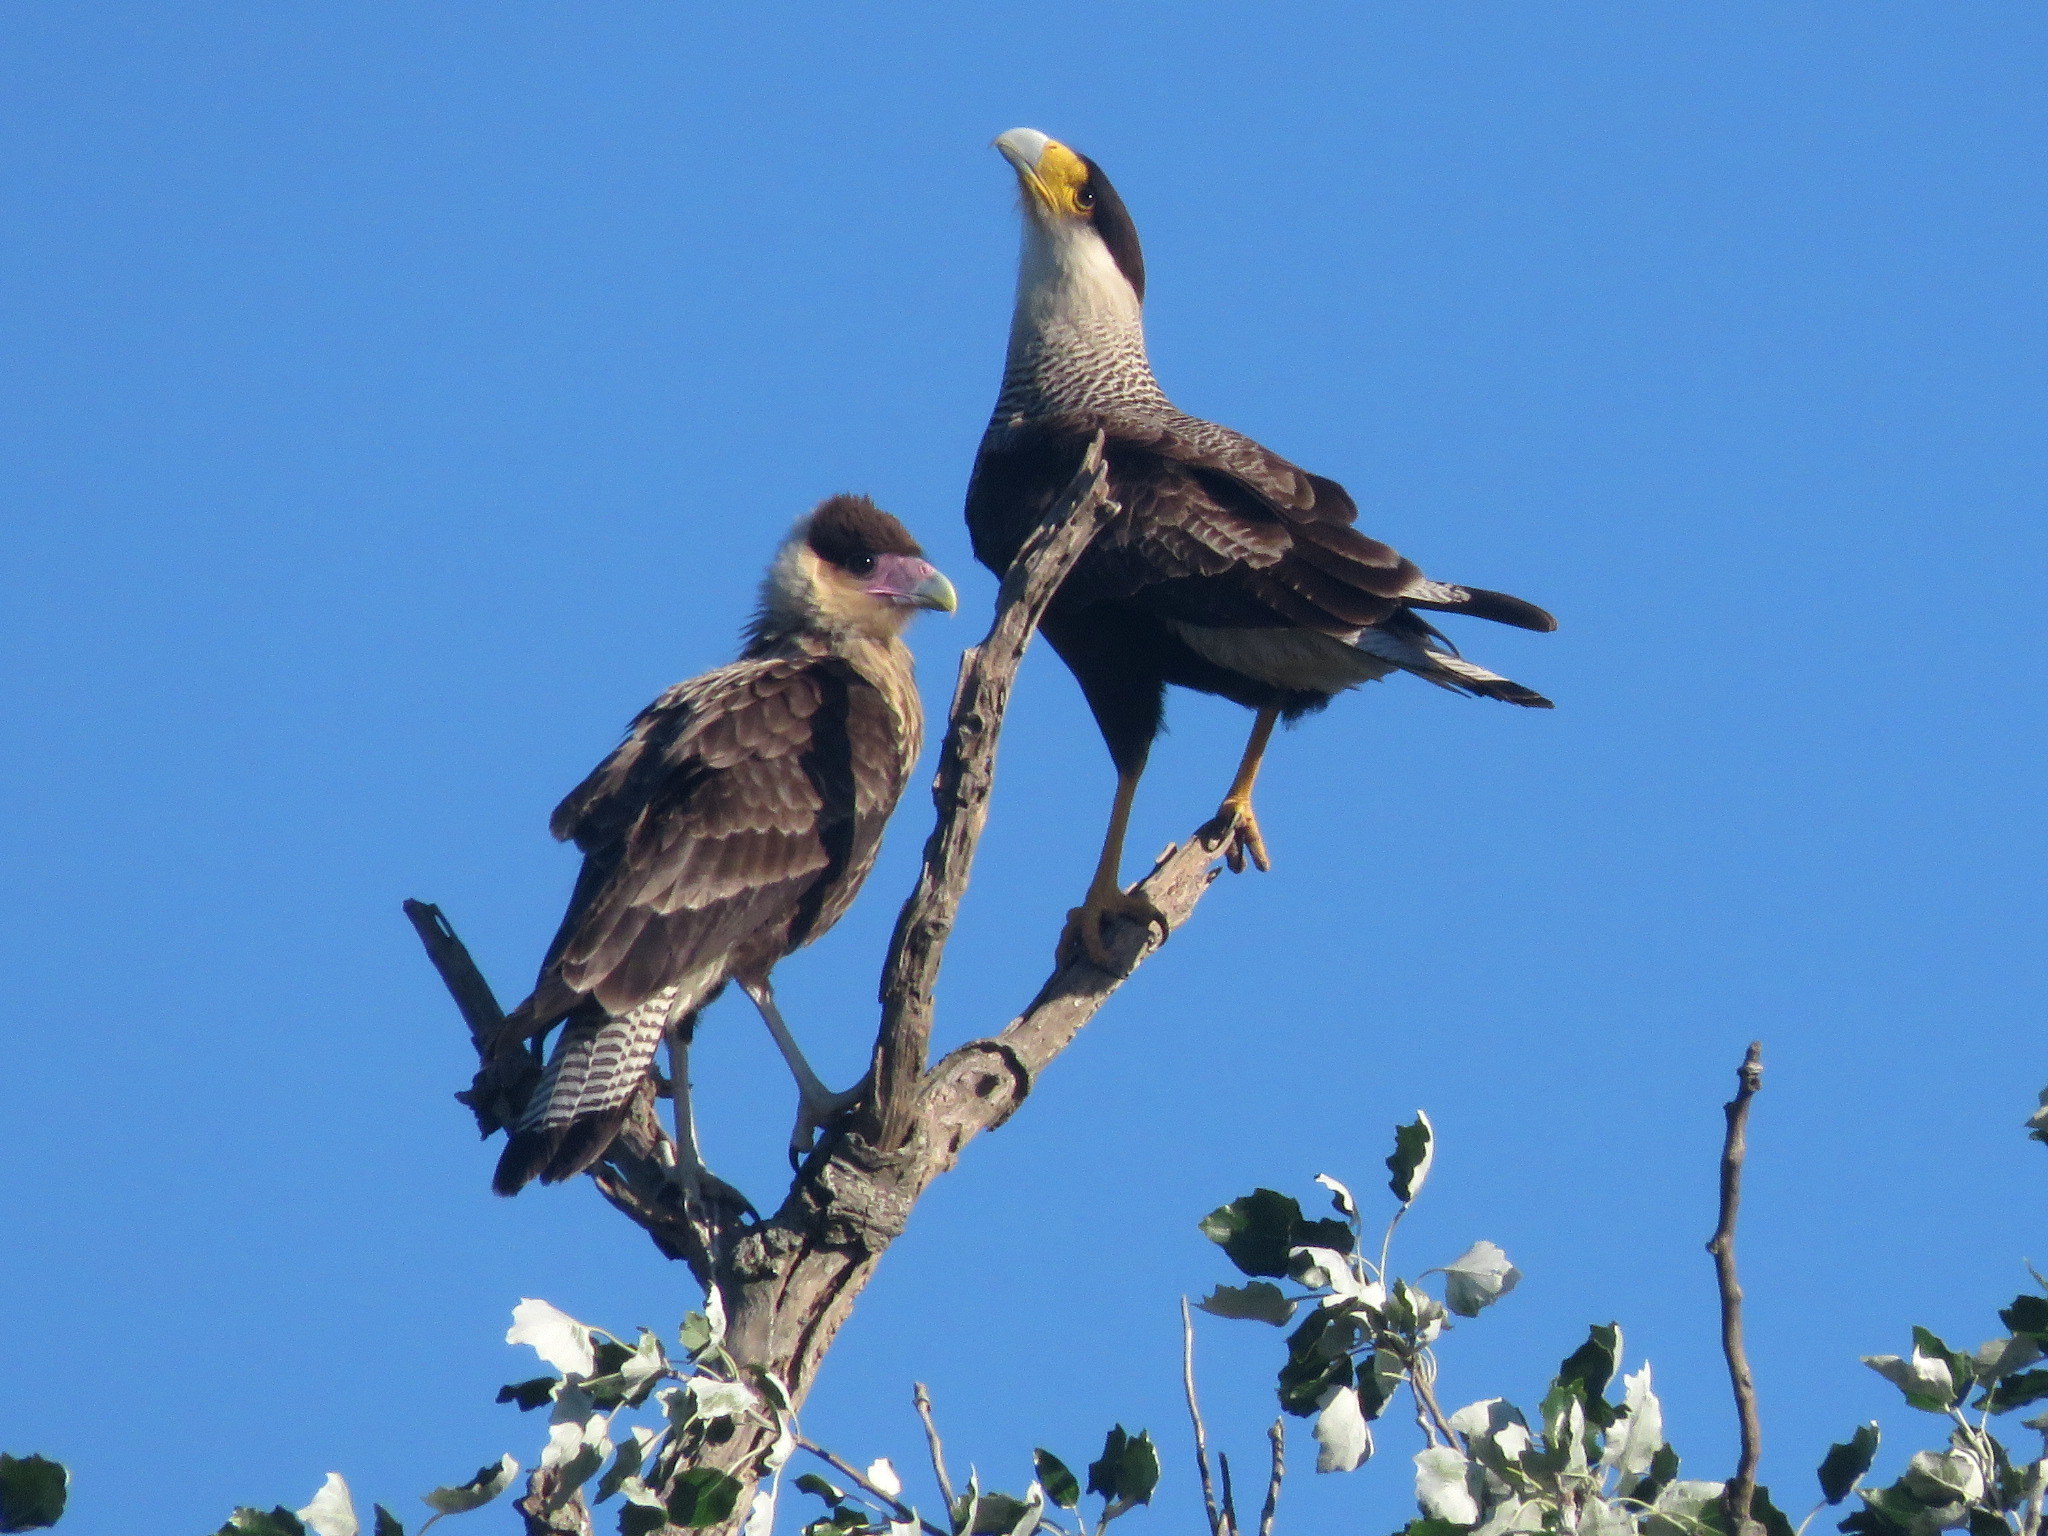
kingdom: Animalia
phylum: Chordata
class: Aves
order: Falconiformes
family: Falconidae
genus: Caracara
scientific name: Caracara plancus
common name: Southern caracara
